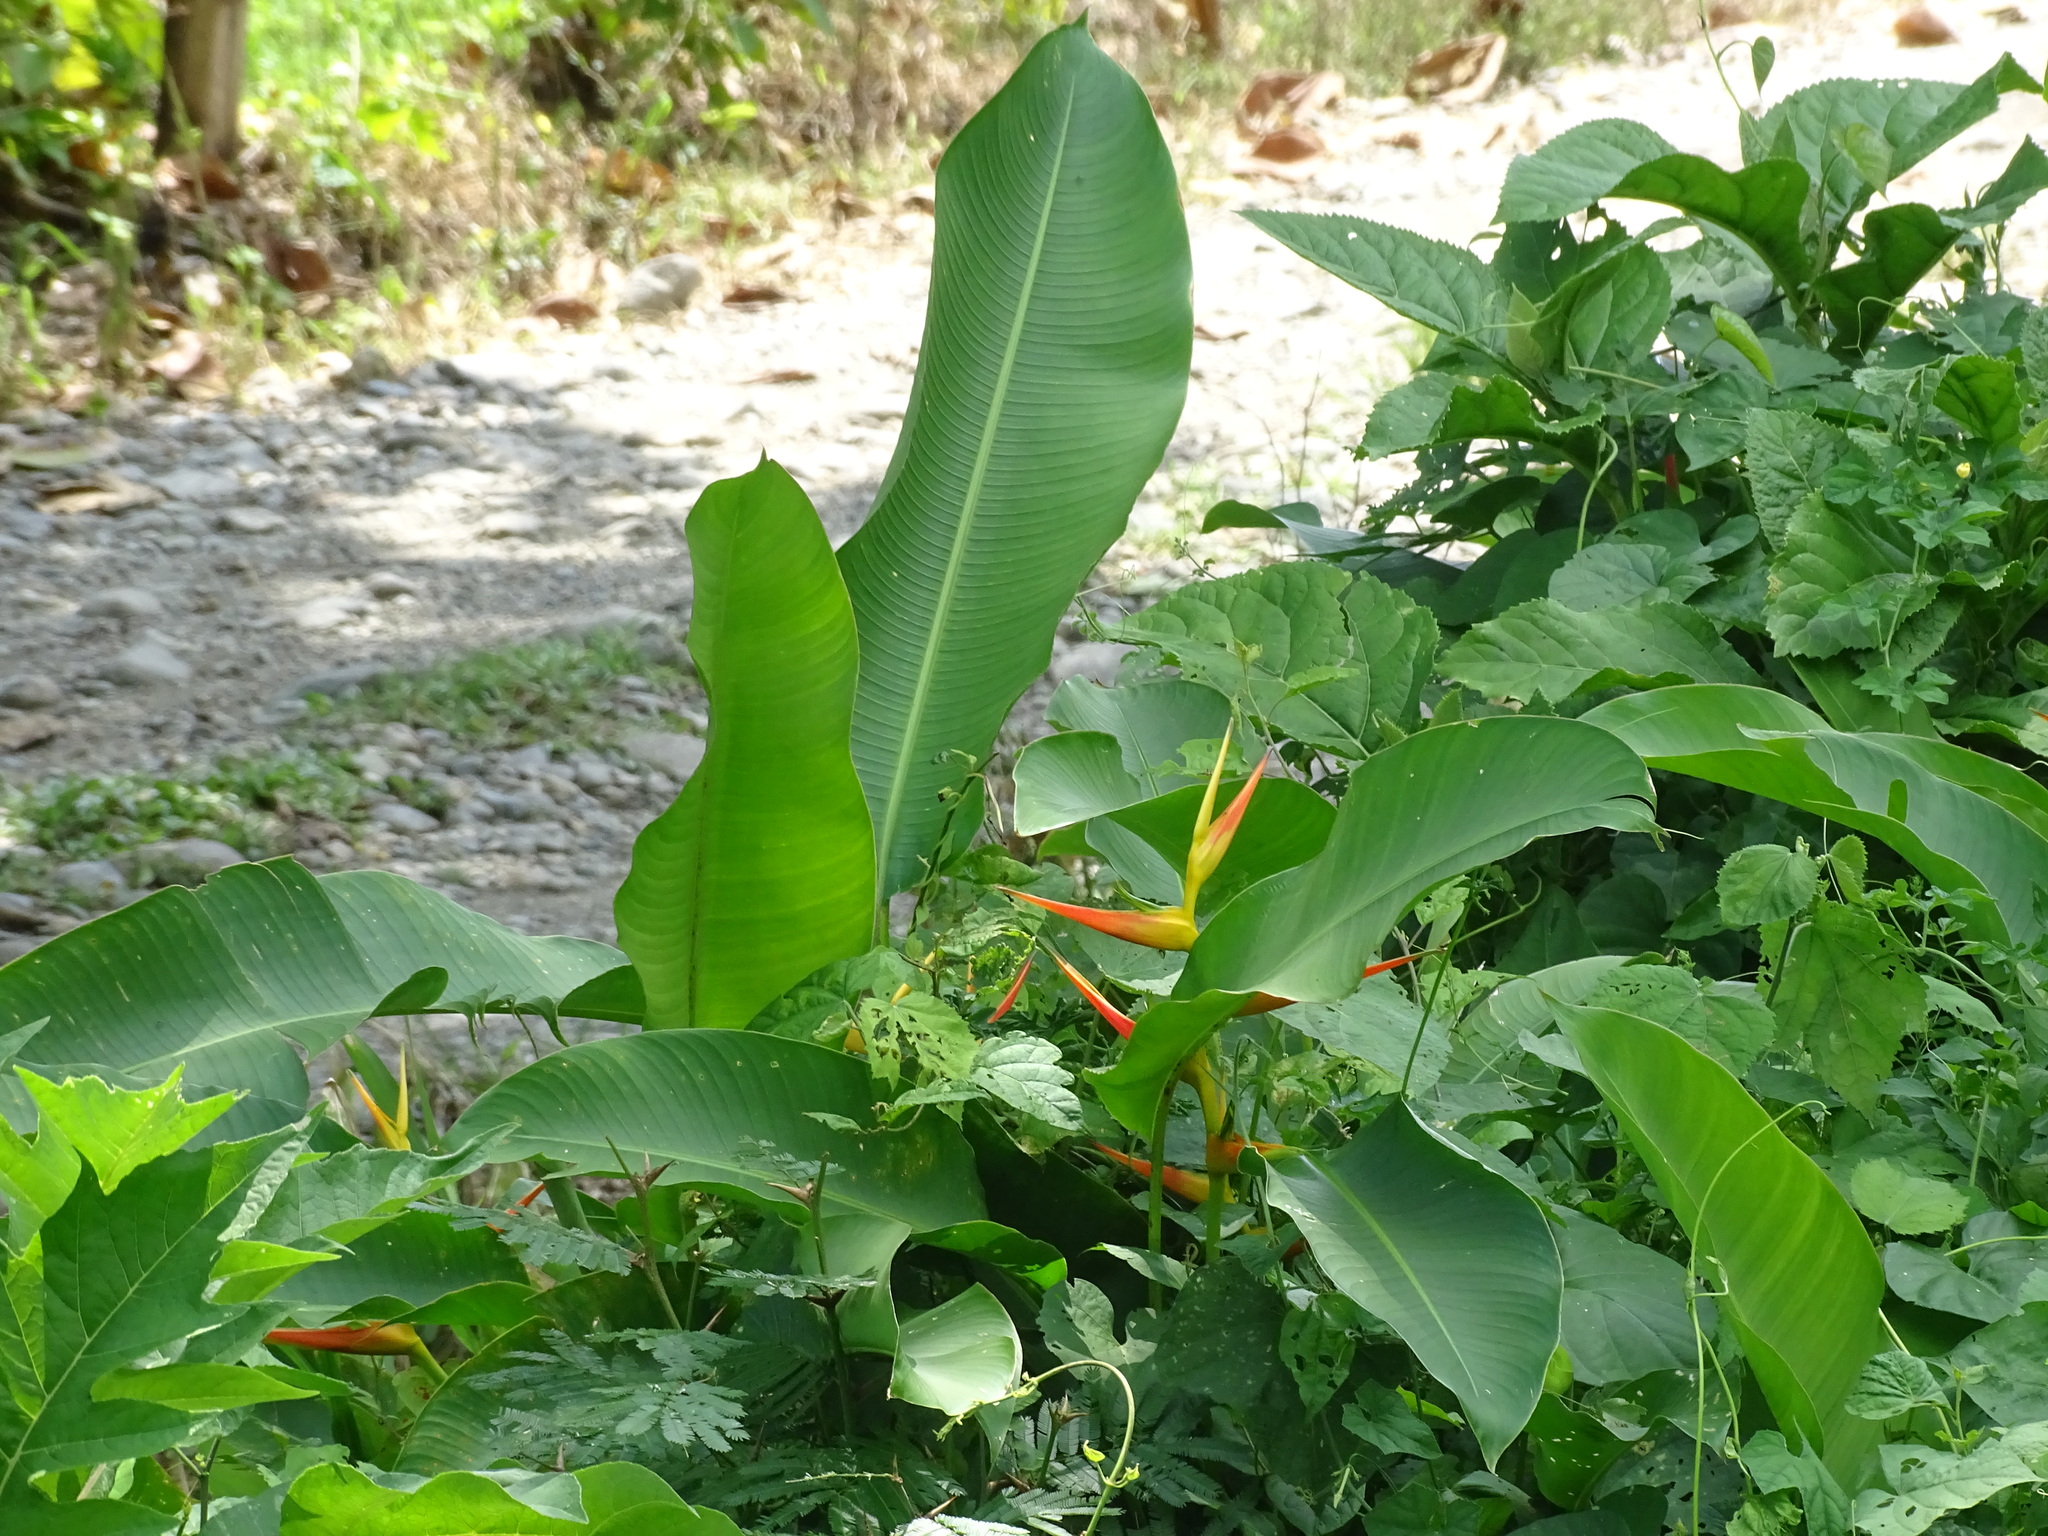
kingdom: Plantae
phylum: Tracheophyta
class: Liliopsida
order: Zingiberales
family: Heliconiaceae
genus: Heliconia
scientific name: Heliconia latispatha
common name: Expanded lobsterclaw
